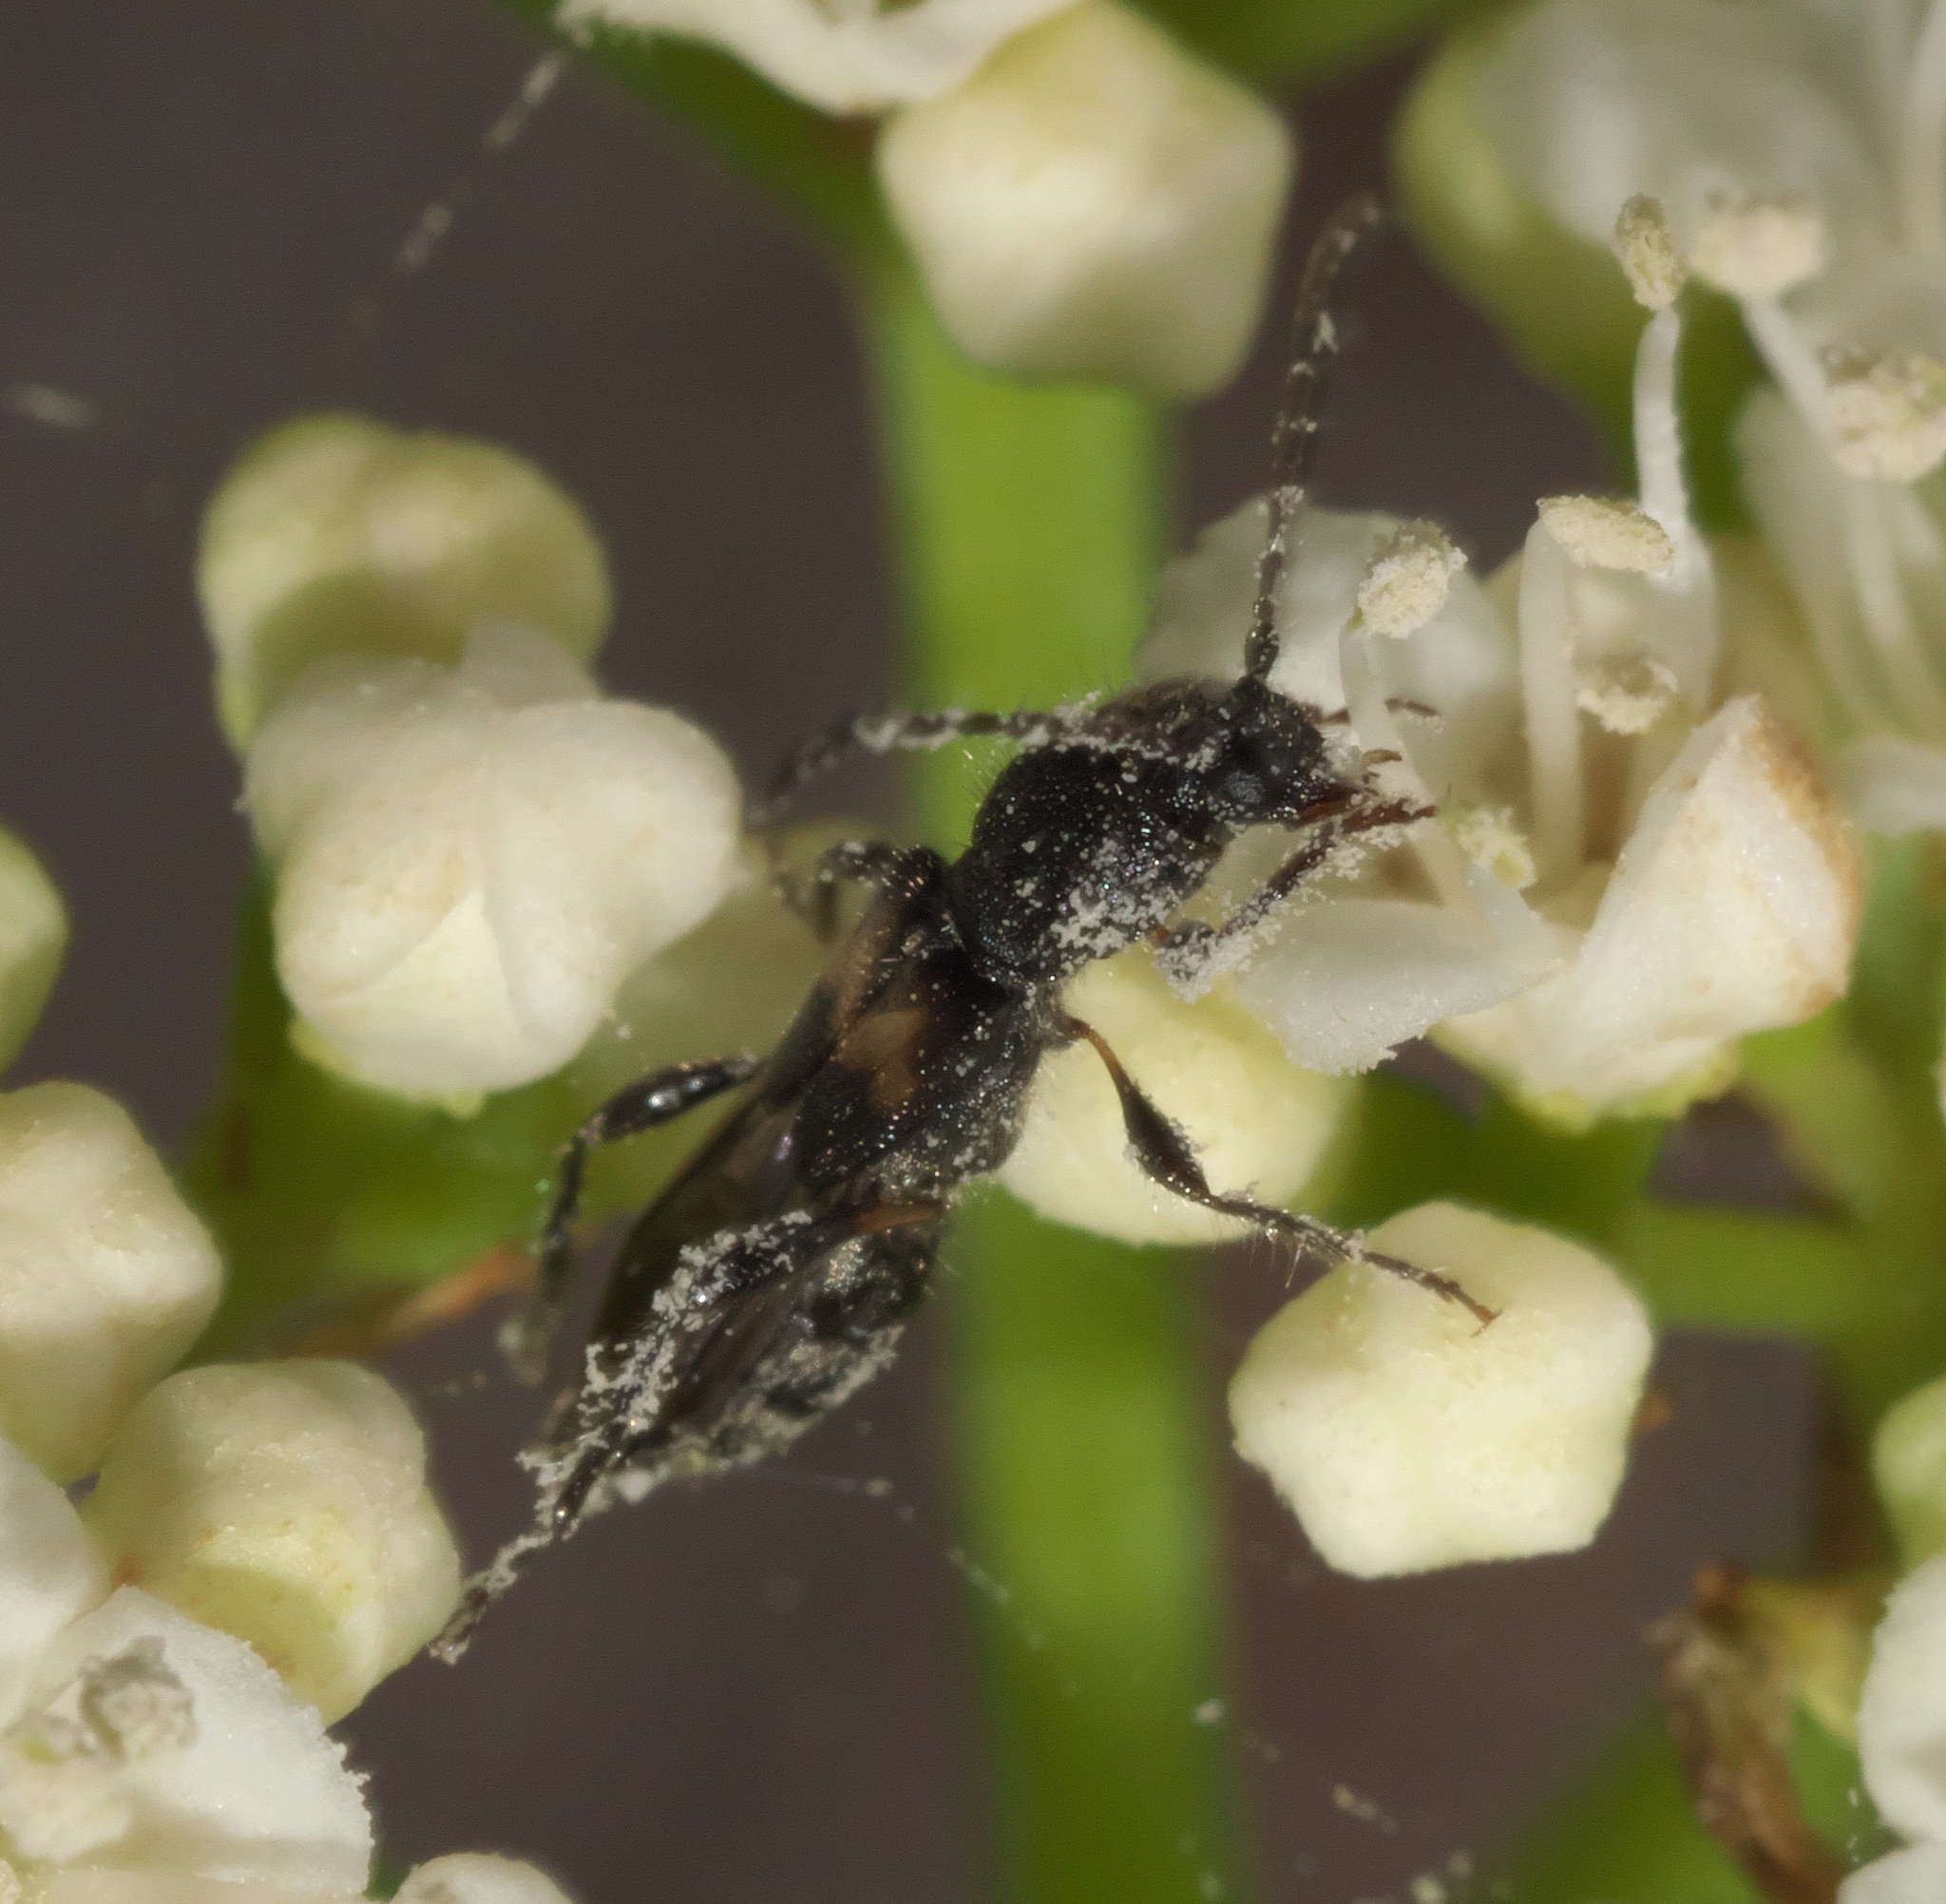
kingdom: Animalia
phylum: Arthropoda
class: Insecta
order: Coleoptera
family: Cerambycidae
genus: Molorchus
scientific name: Molorchus bimaculatus
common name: Bimaculate longhorn beetle
